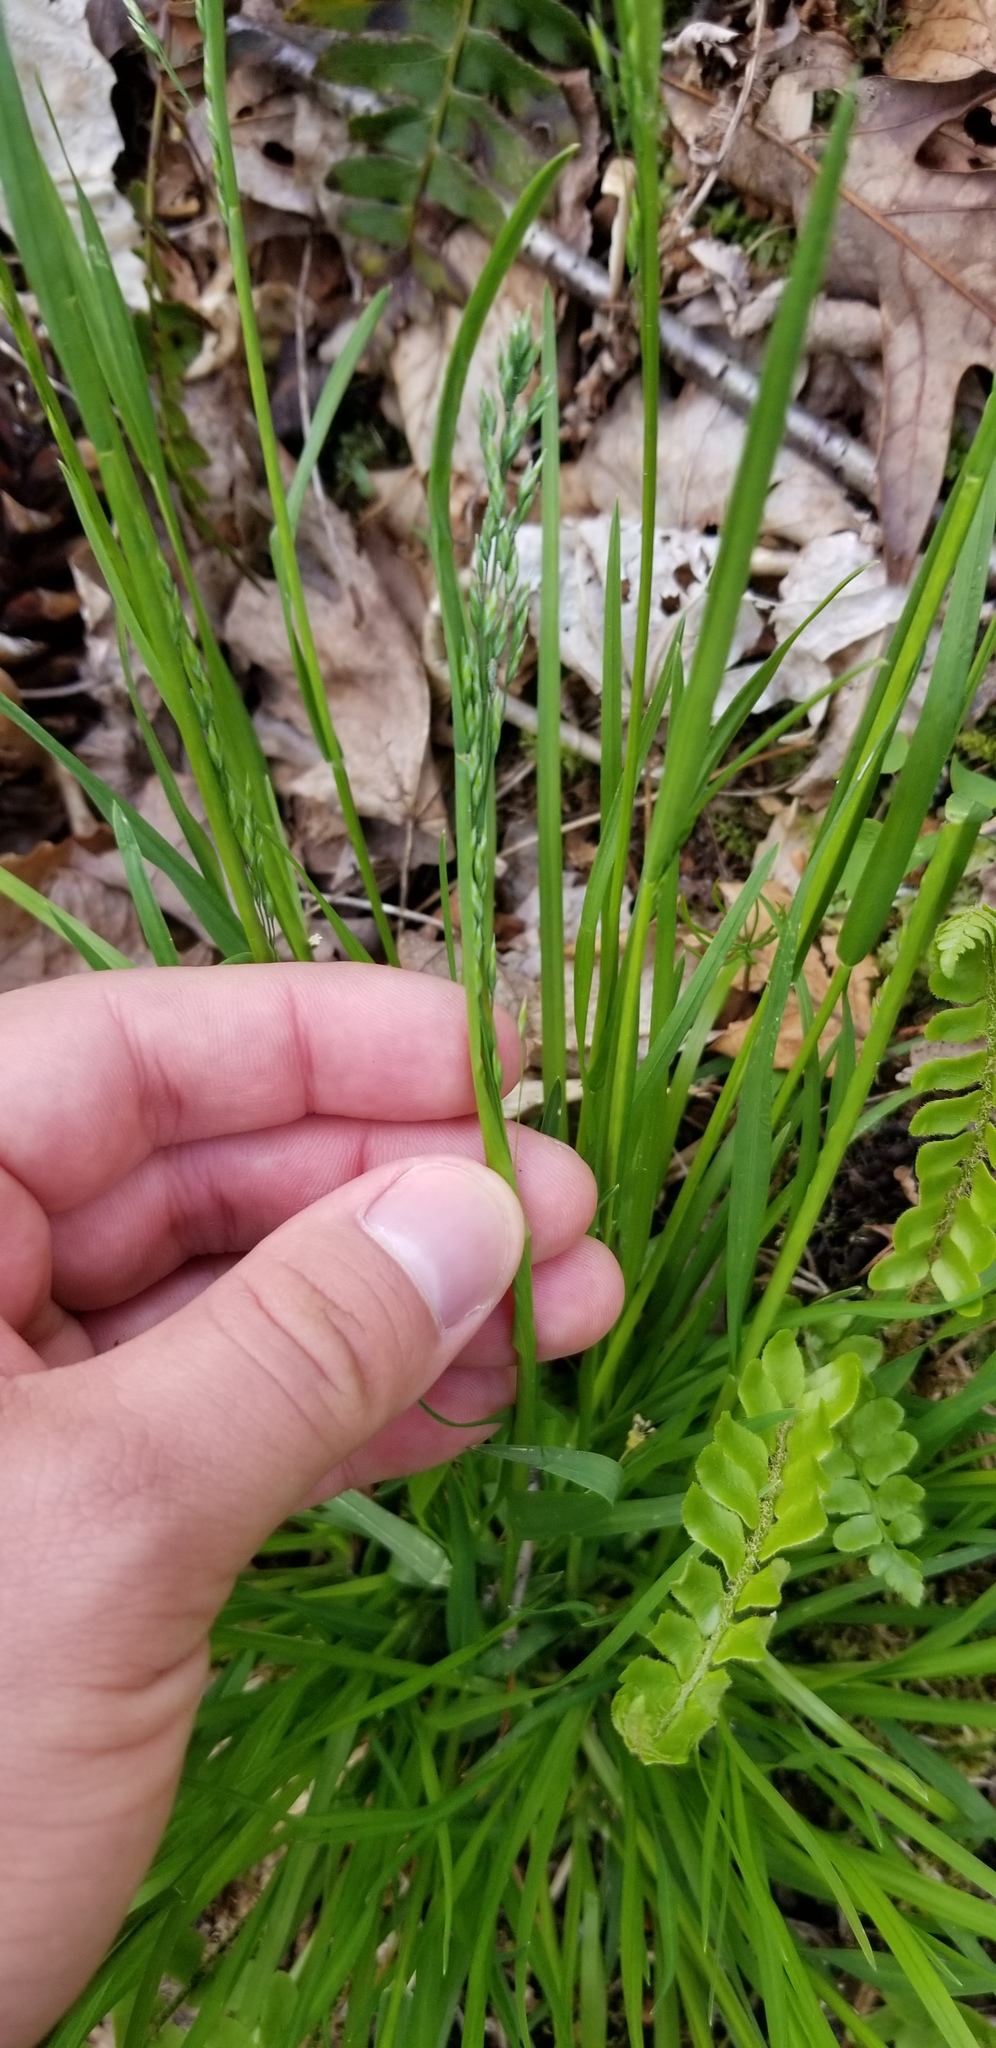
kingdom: Plantae
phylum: Tracheophyta
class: Liliopsida
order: Poales
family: Poaceae
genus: Lolium
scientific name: Lolium arundinaceum
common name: Reed fescue
